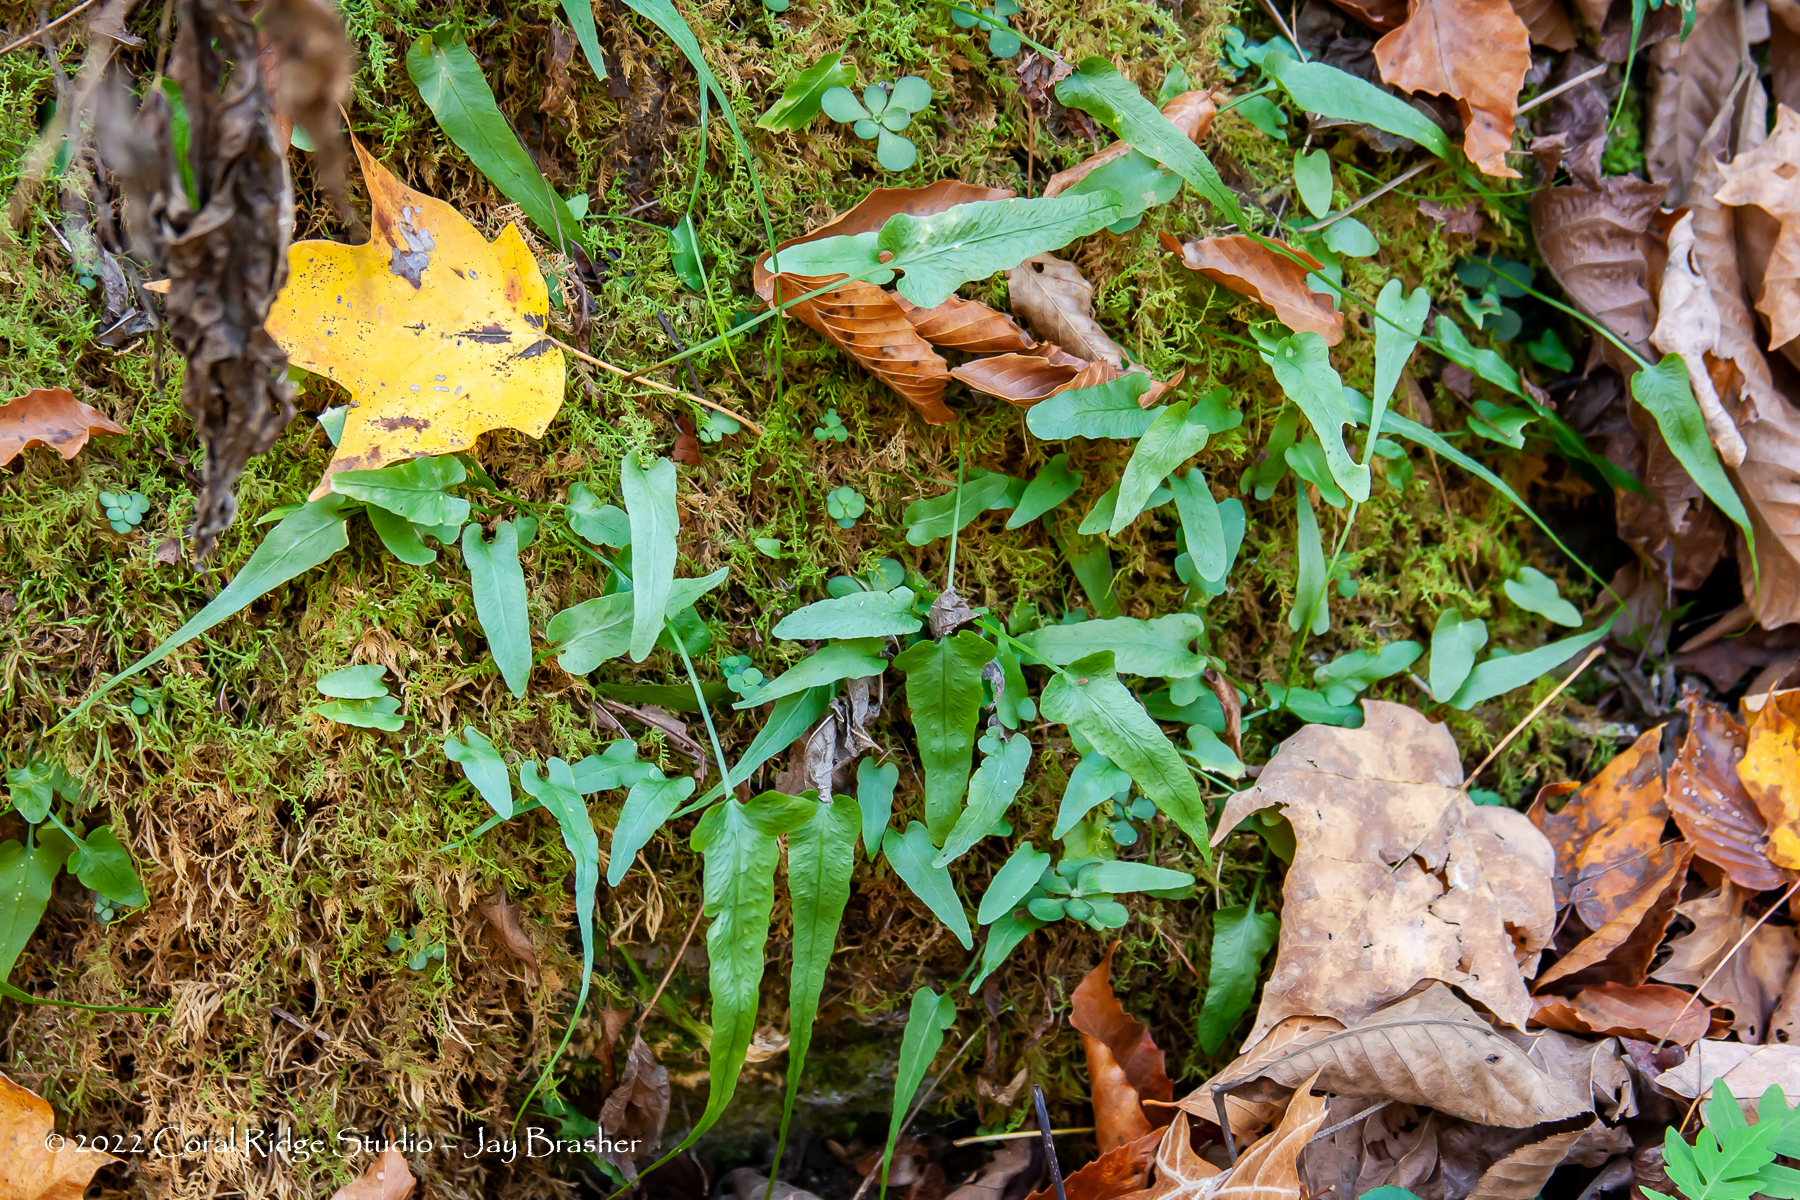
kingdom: Plantae
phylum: Tracheophyta
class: Polypodiopsida
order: Polypodiales
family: Aspleniaceae
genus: Asplenium
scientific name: Asplenium rhizophyllum
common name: Walking fern
